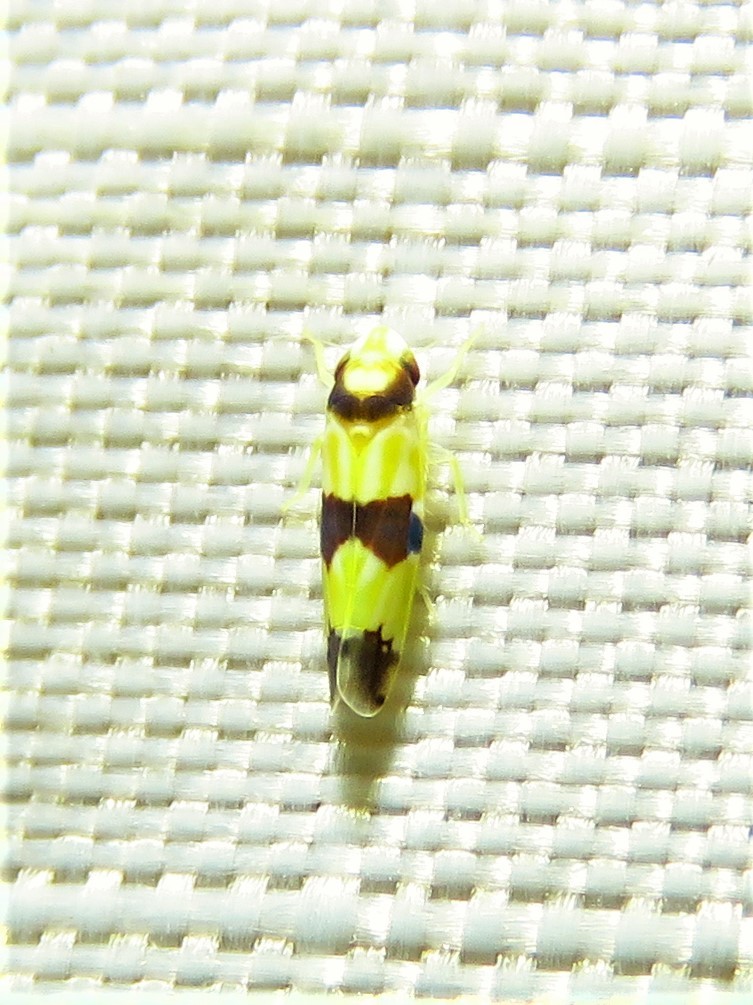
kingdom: Animalia
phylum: Arthropoda
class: Insecta
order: Hemiptera
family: Cicadellidae
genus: Erythroneura
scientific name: Erythroneura calycula
